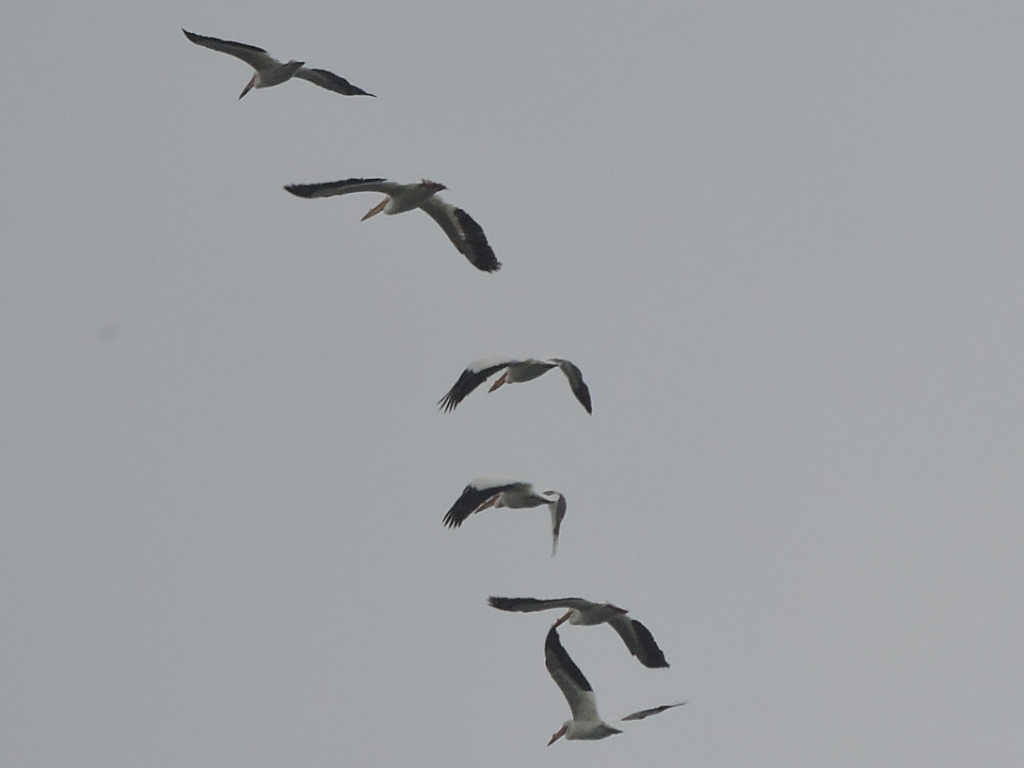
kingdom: Animalia
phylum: Chordata
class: Aves
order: Pelecaniformes
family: Pelecanidae
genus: Pelecanus
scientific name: Pelecanus erythrorhynchos
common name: American white pelican
